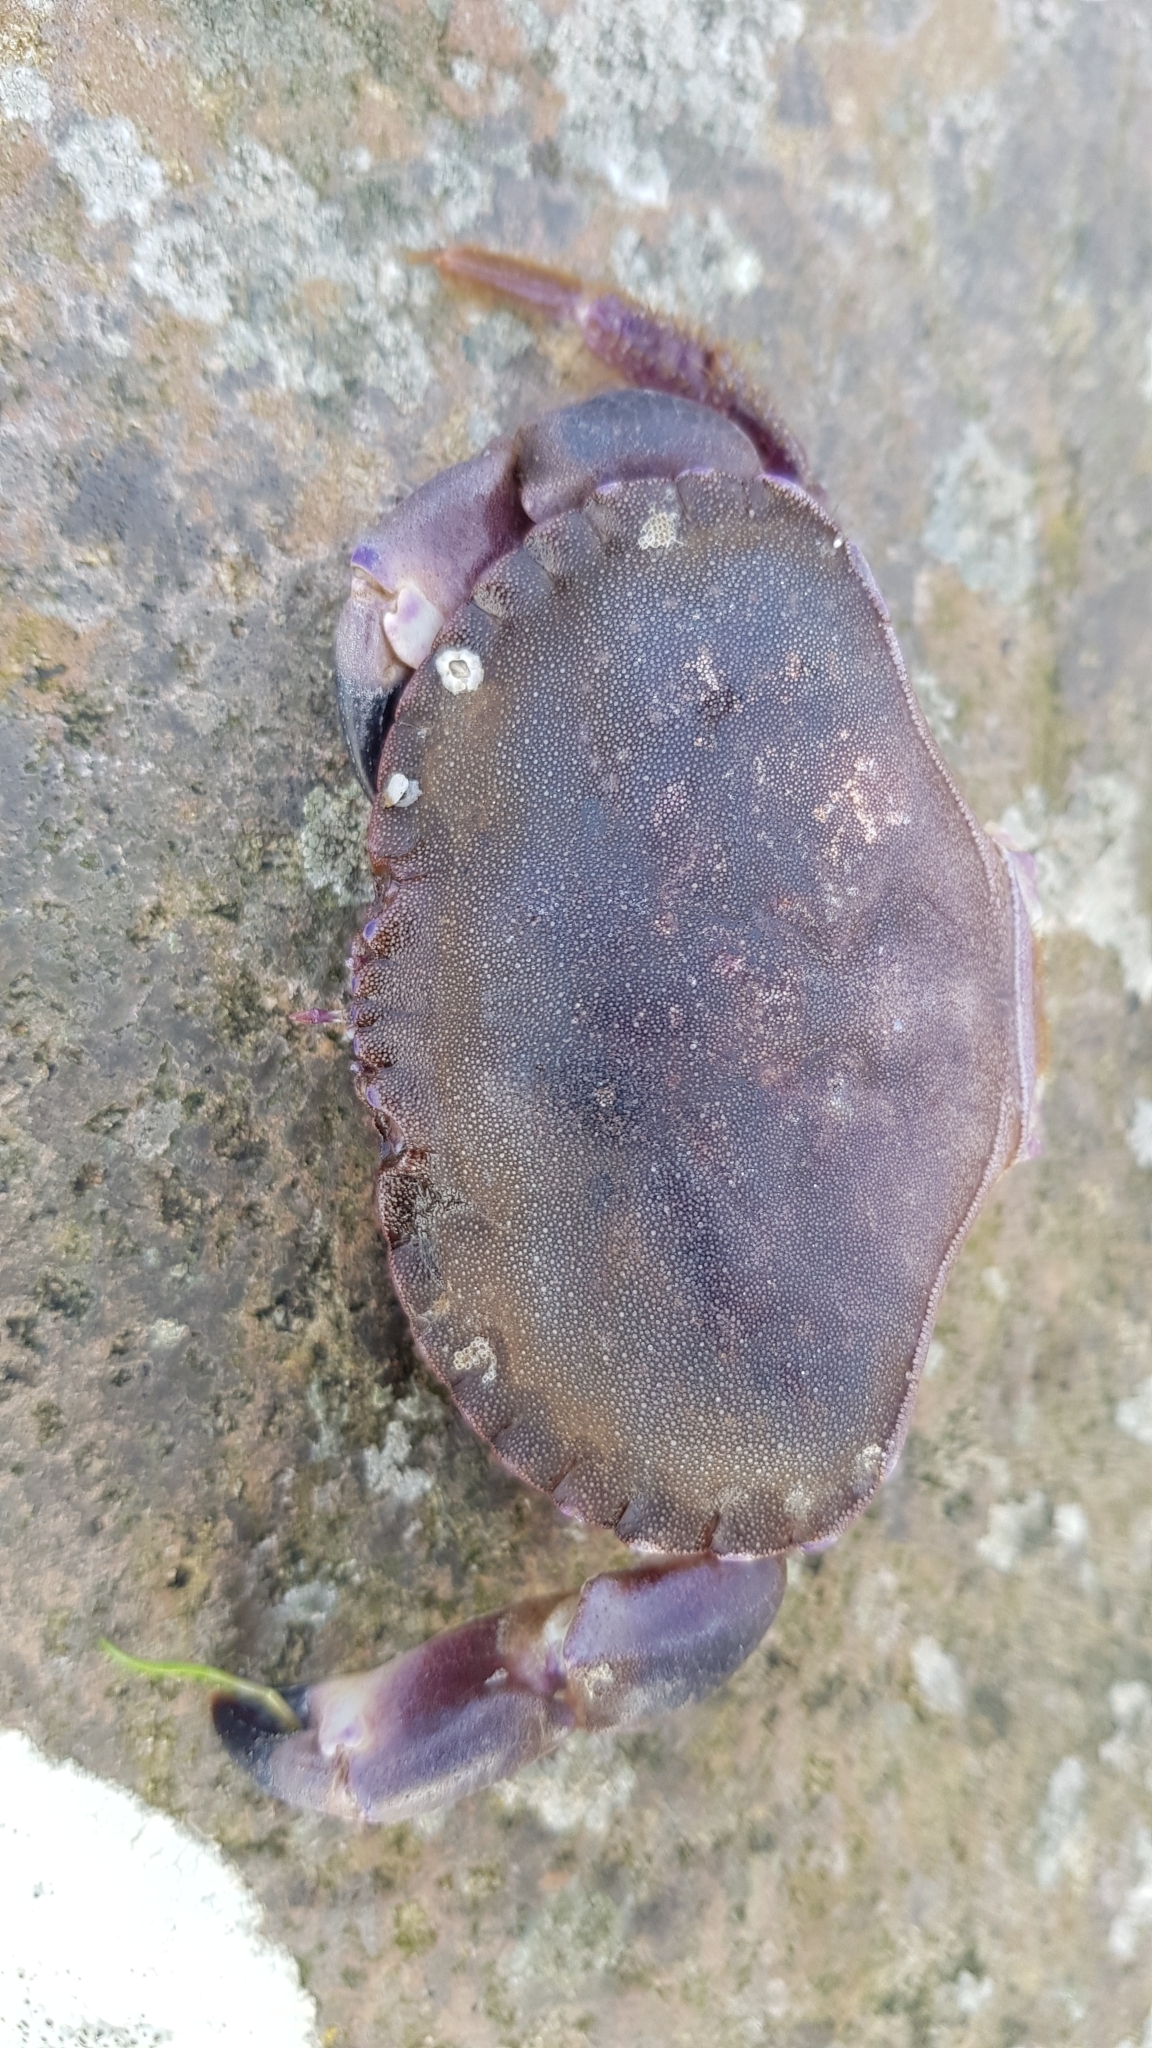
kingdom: Animalia
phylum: Arthropoda
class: Malacostraca
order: Decapoda
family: Cancridae
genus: Cancer
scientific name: Cancer pagurus
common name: Edible crab
